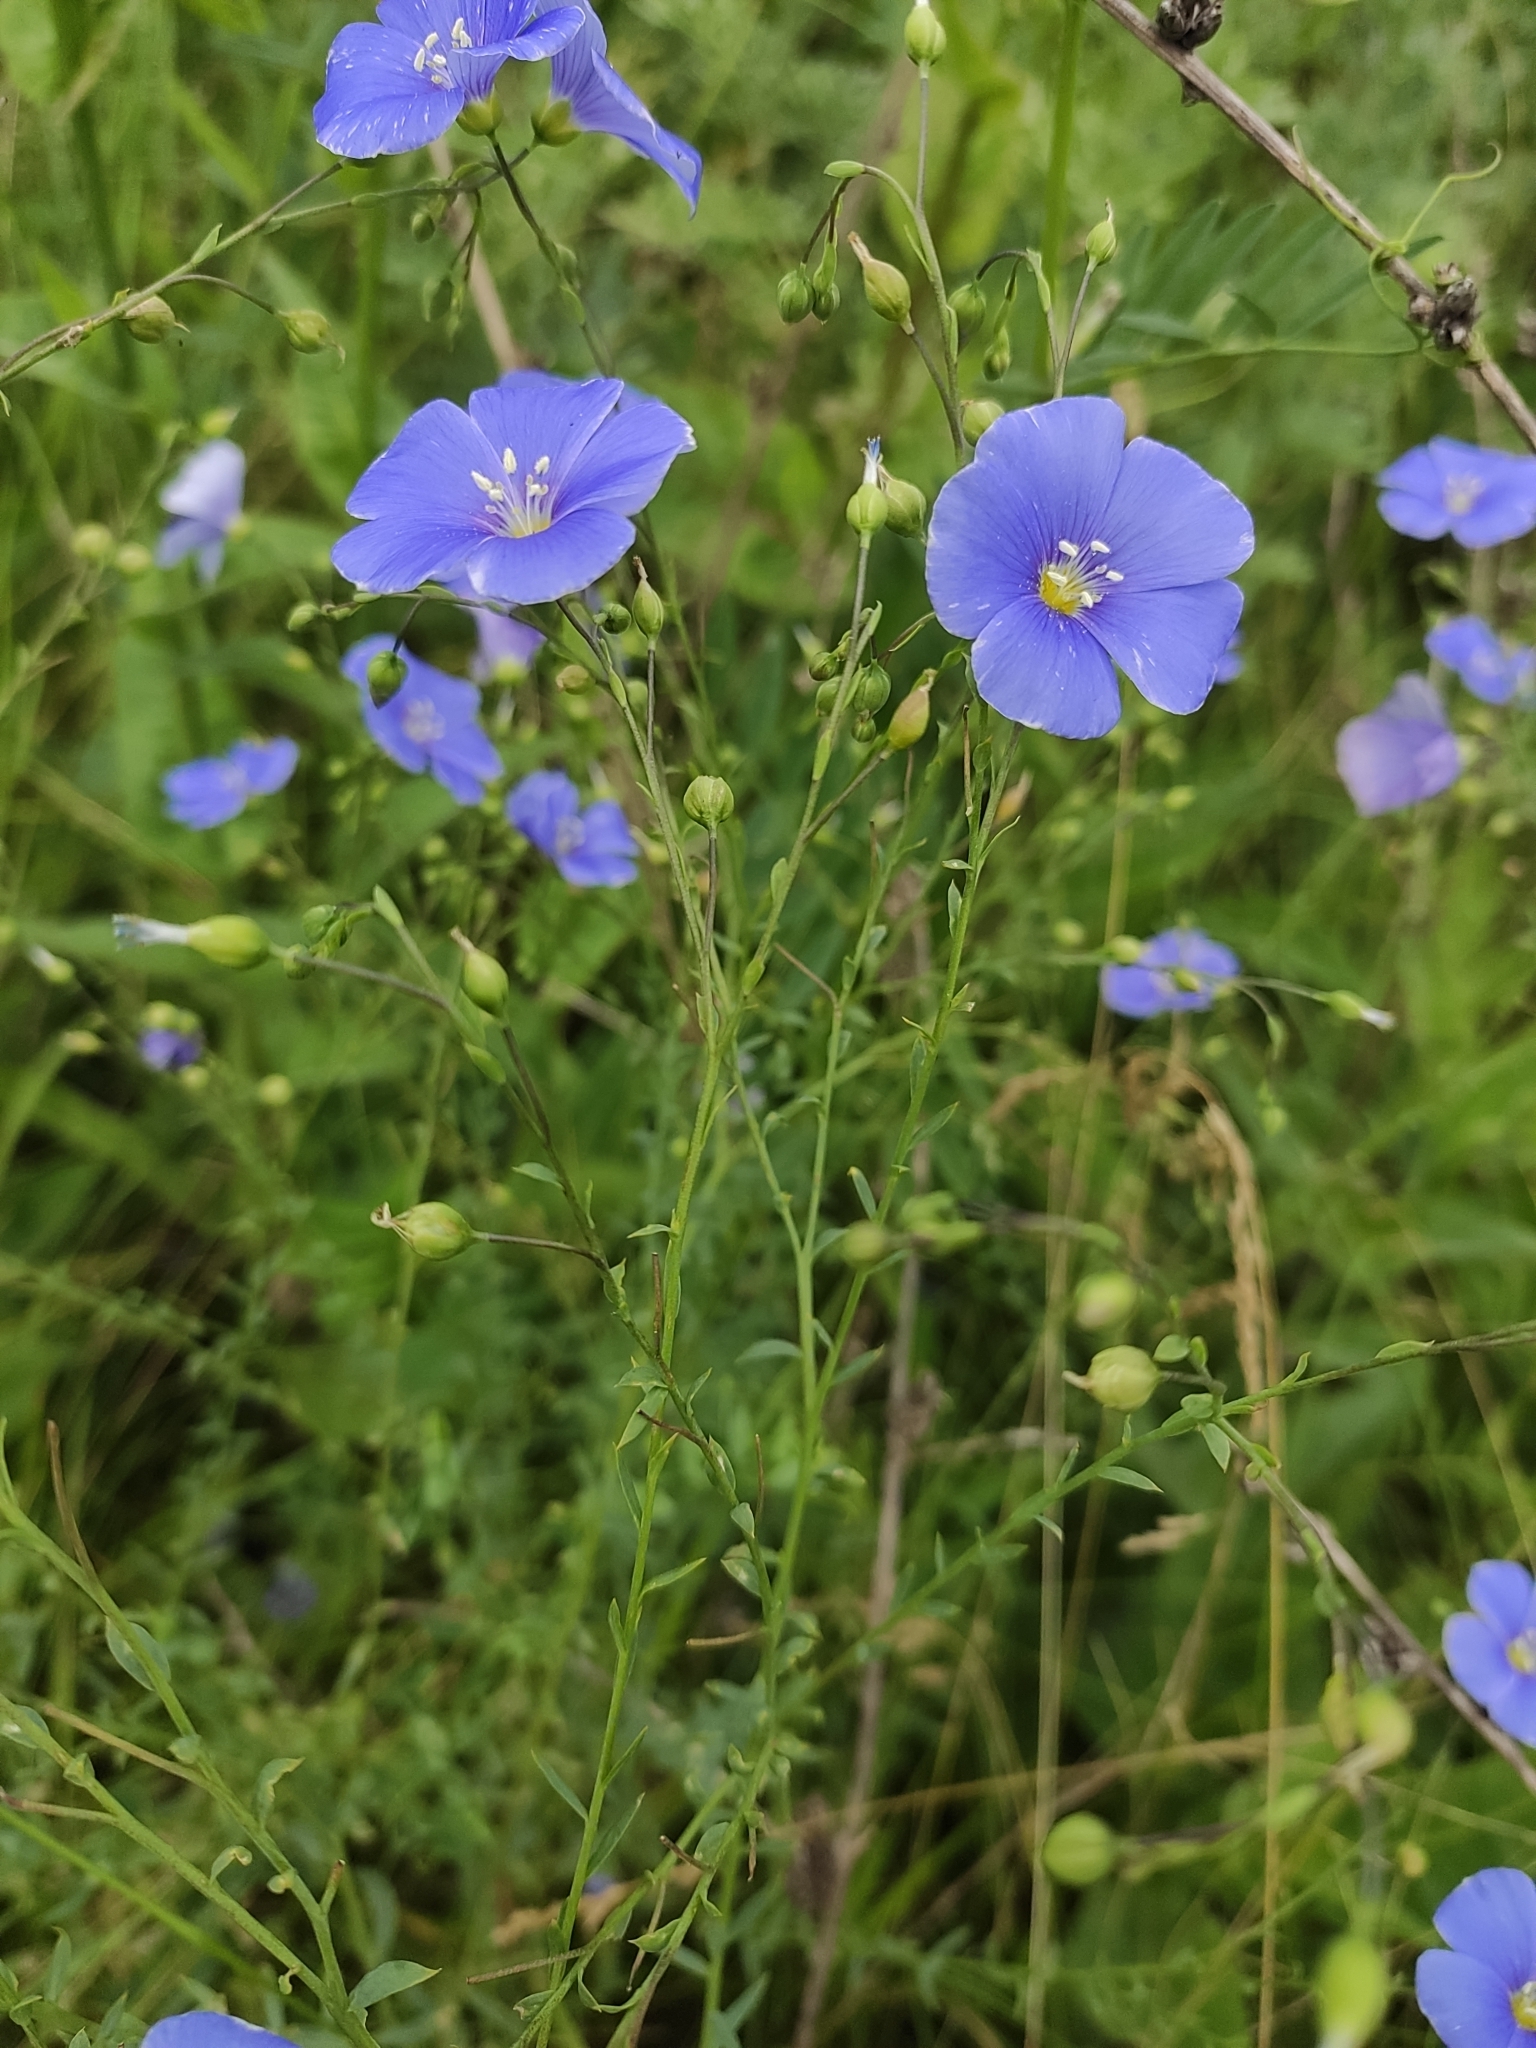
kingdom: Plantae
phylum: Tracheophyta
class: Magnoliopsida
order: Malpighiales
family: Linaceae
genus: Linum
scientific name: Linum austriacum
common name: Austrian flax
